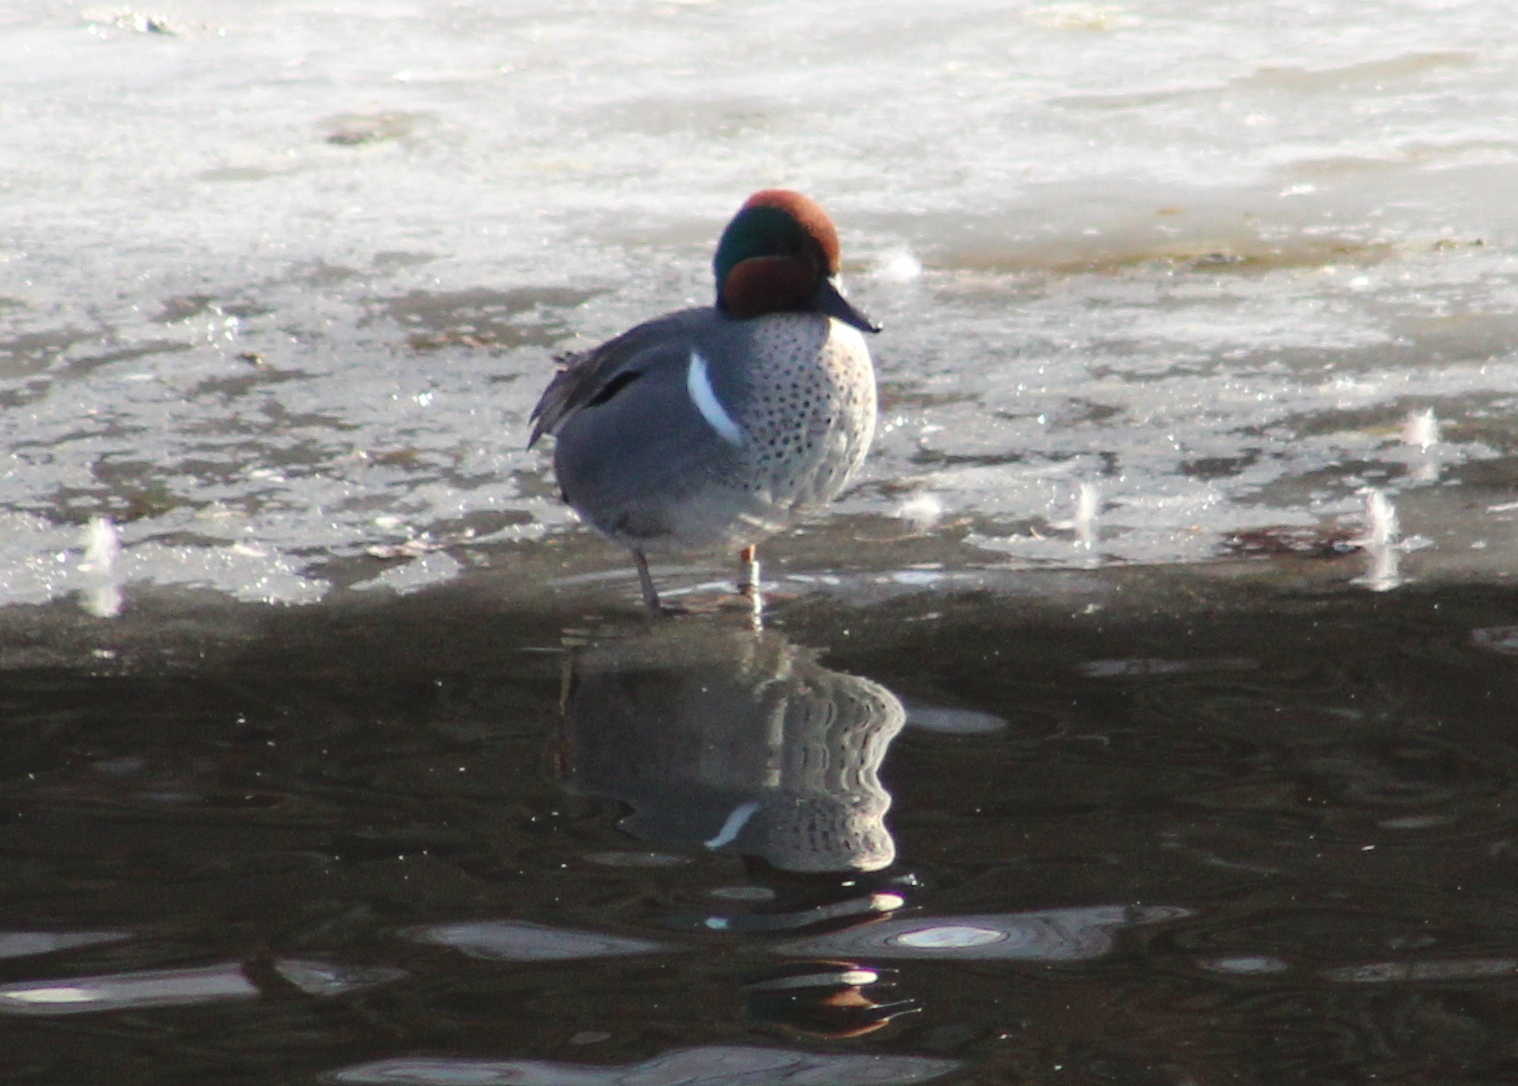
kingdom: Animalia
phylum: Chordata
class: Aves
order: Anseriformes
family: Anatidae
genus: Anas
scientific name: Anas crecca
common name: Eurasian teal
